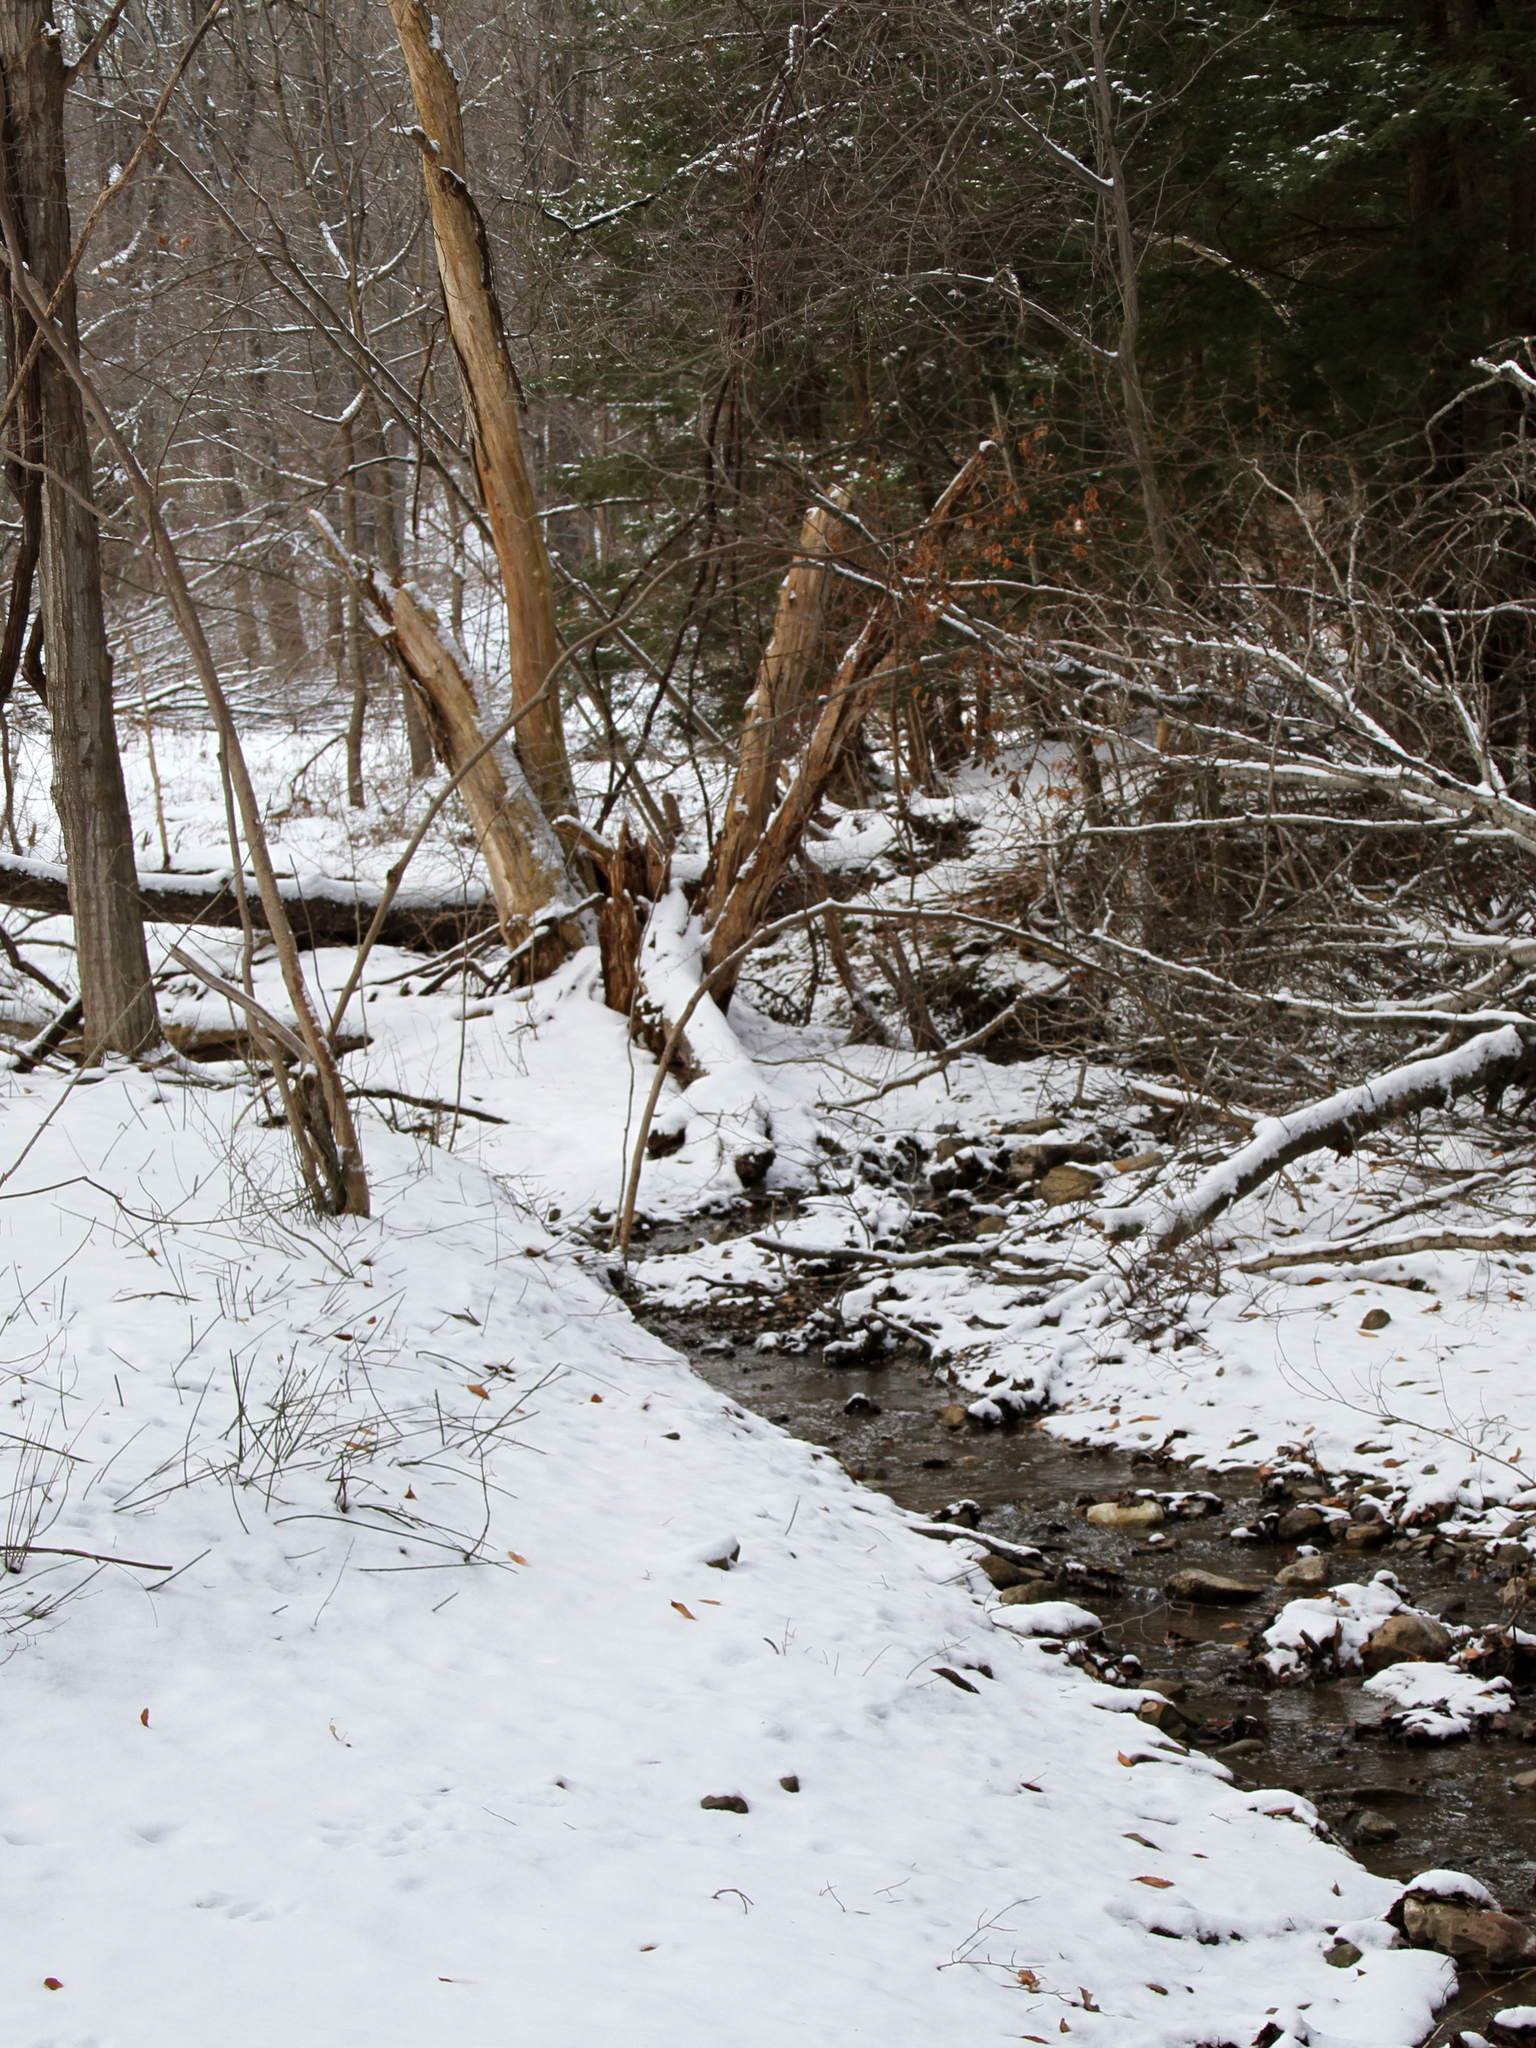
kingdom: Plantae
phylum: Tracheophyta
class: Pinopsida
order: Pinales
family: Pinaceae
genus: Tsuga
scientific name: Tsuga canadensis
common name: Eastern hemlock
